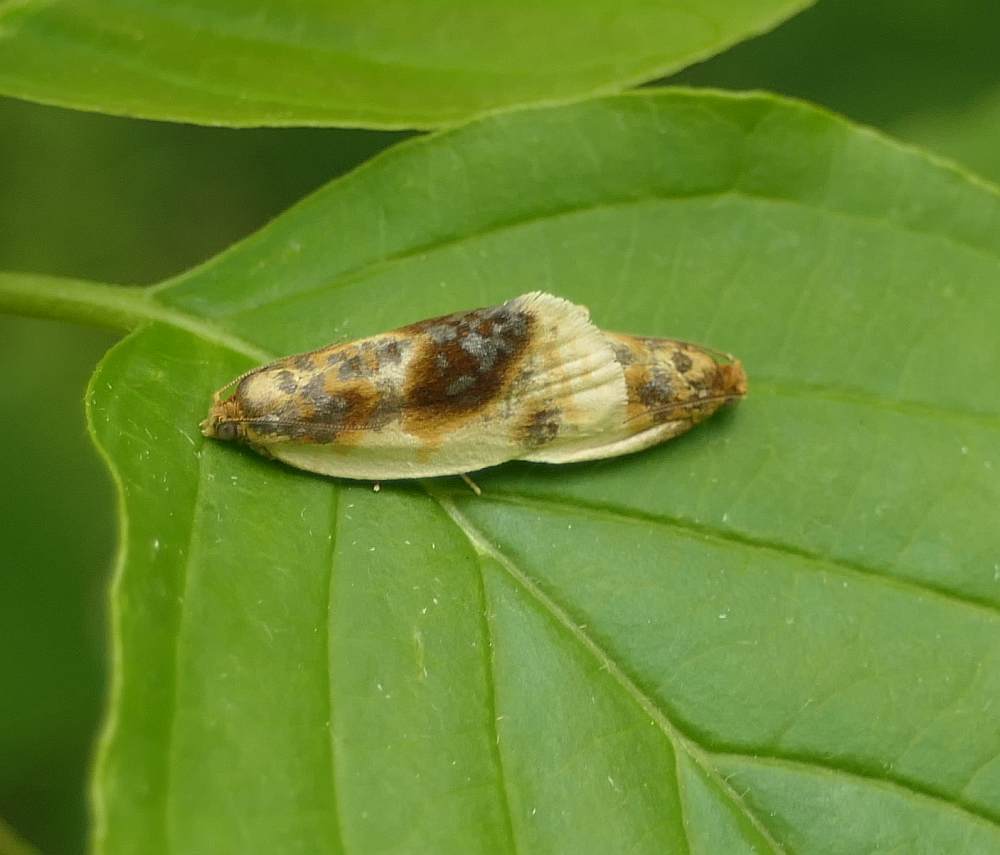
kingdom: Animalia
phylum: Arthropoda
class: Insecta
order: Lepidoptera
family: Tortricidae
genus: Clepsis
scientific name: Clepsis melaleucanus
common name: American apple tortrix
